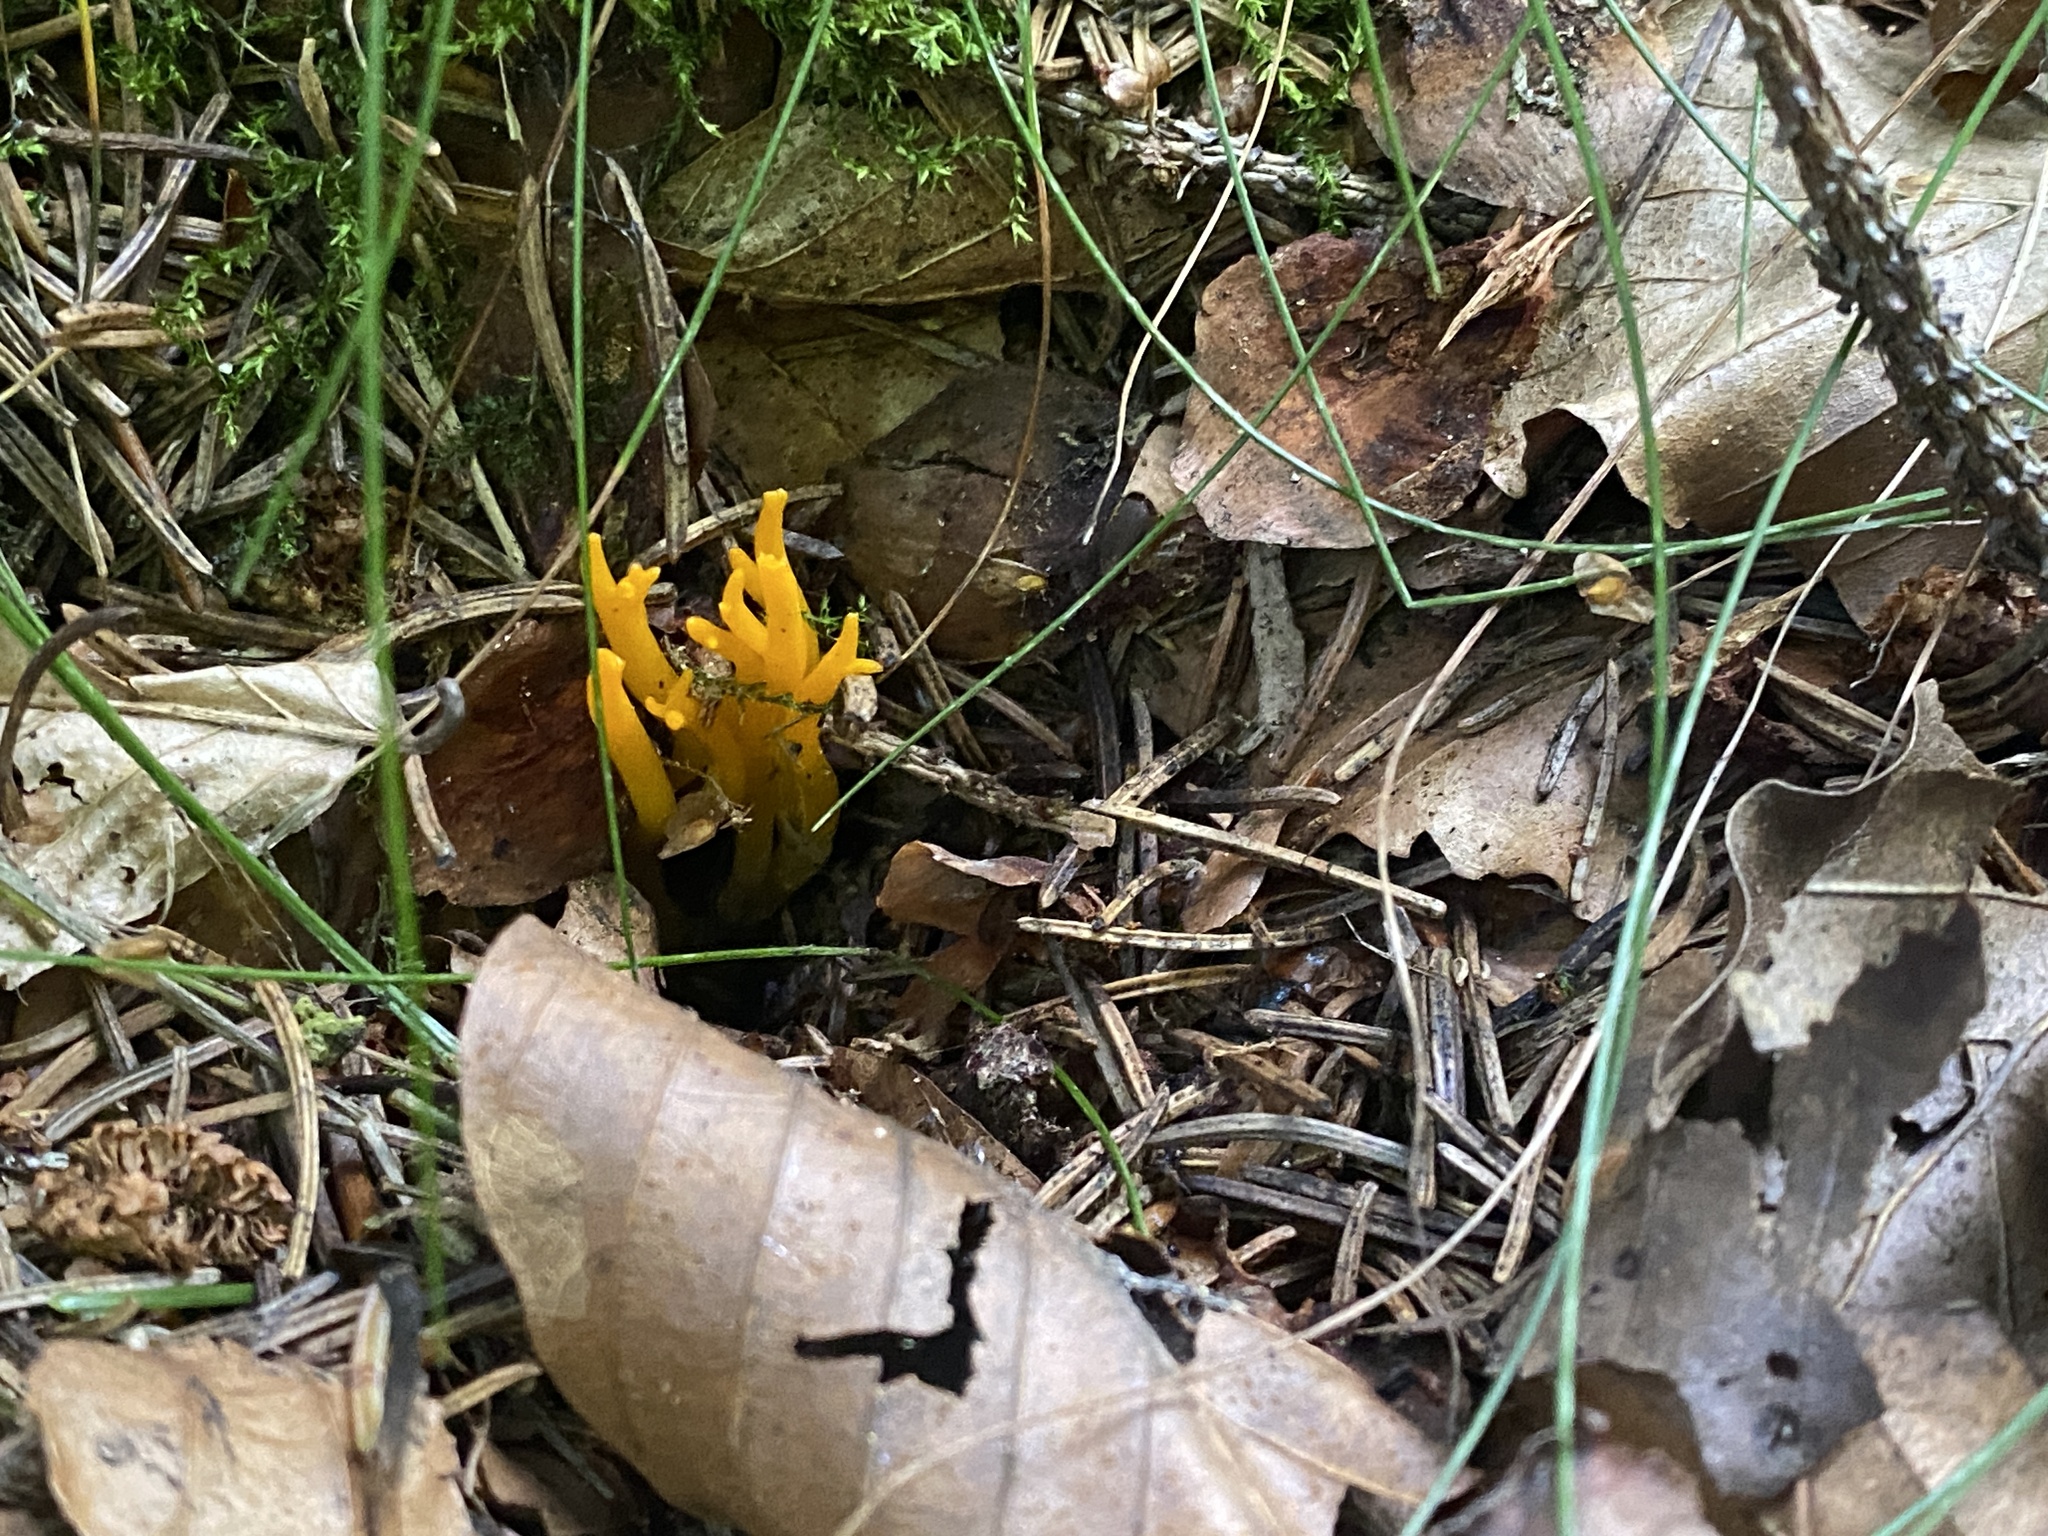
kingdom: Fungi
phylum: Basidiomycota
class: Dacrymycetes
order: Dacrymycetales
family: Dacrymycetaceae
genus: Calocera
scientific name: Calocera viscosa
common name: Yellow stagshorn
